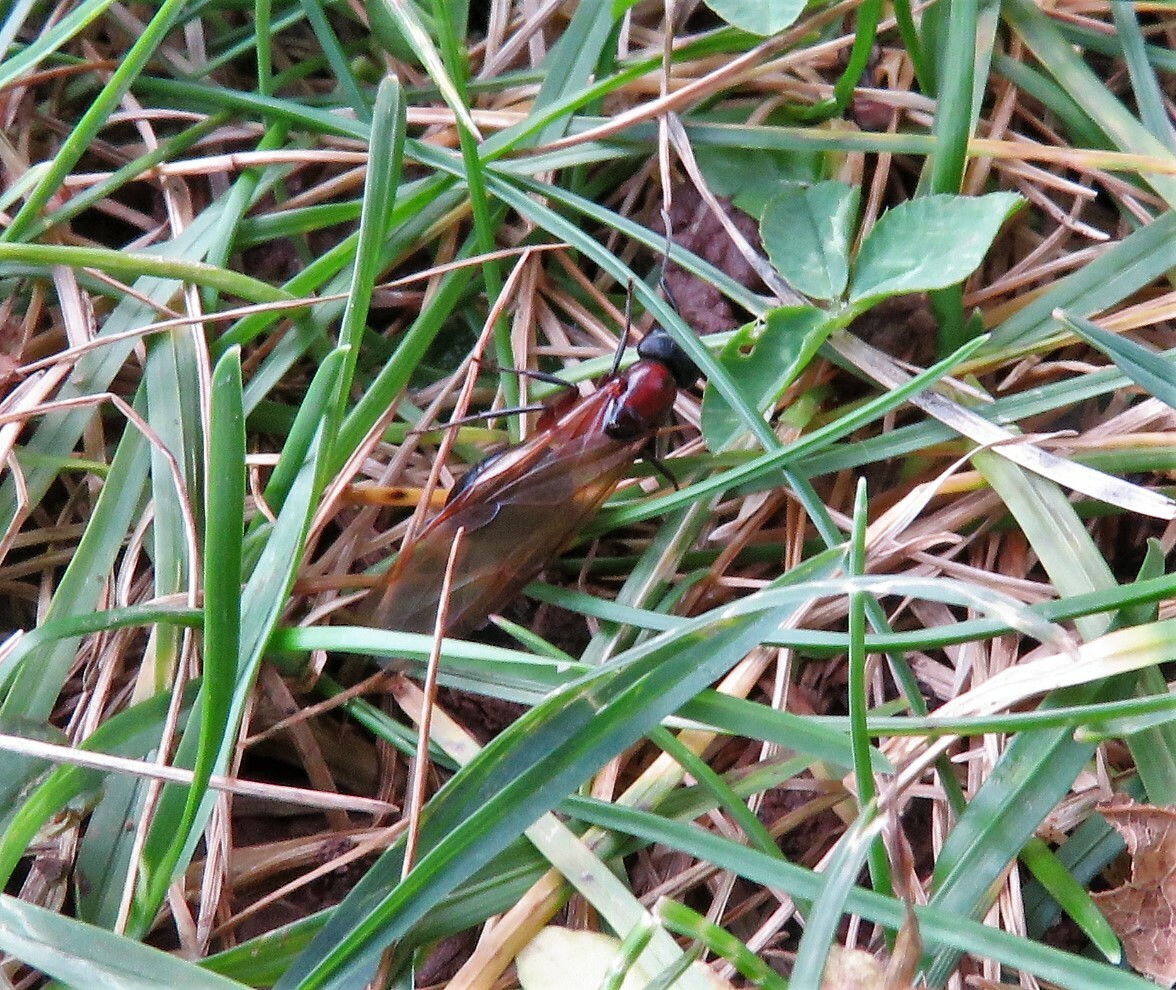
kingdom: Animalia
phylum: Arthropoda
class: Insecta
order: Hymenoptera
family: Formicidae
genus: Camponotus
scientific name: Camponotus novaeboracensis
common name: New york carpenter ant
